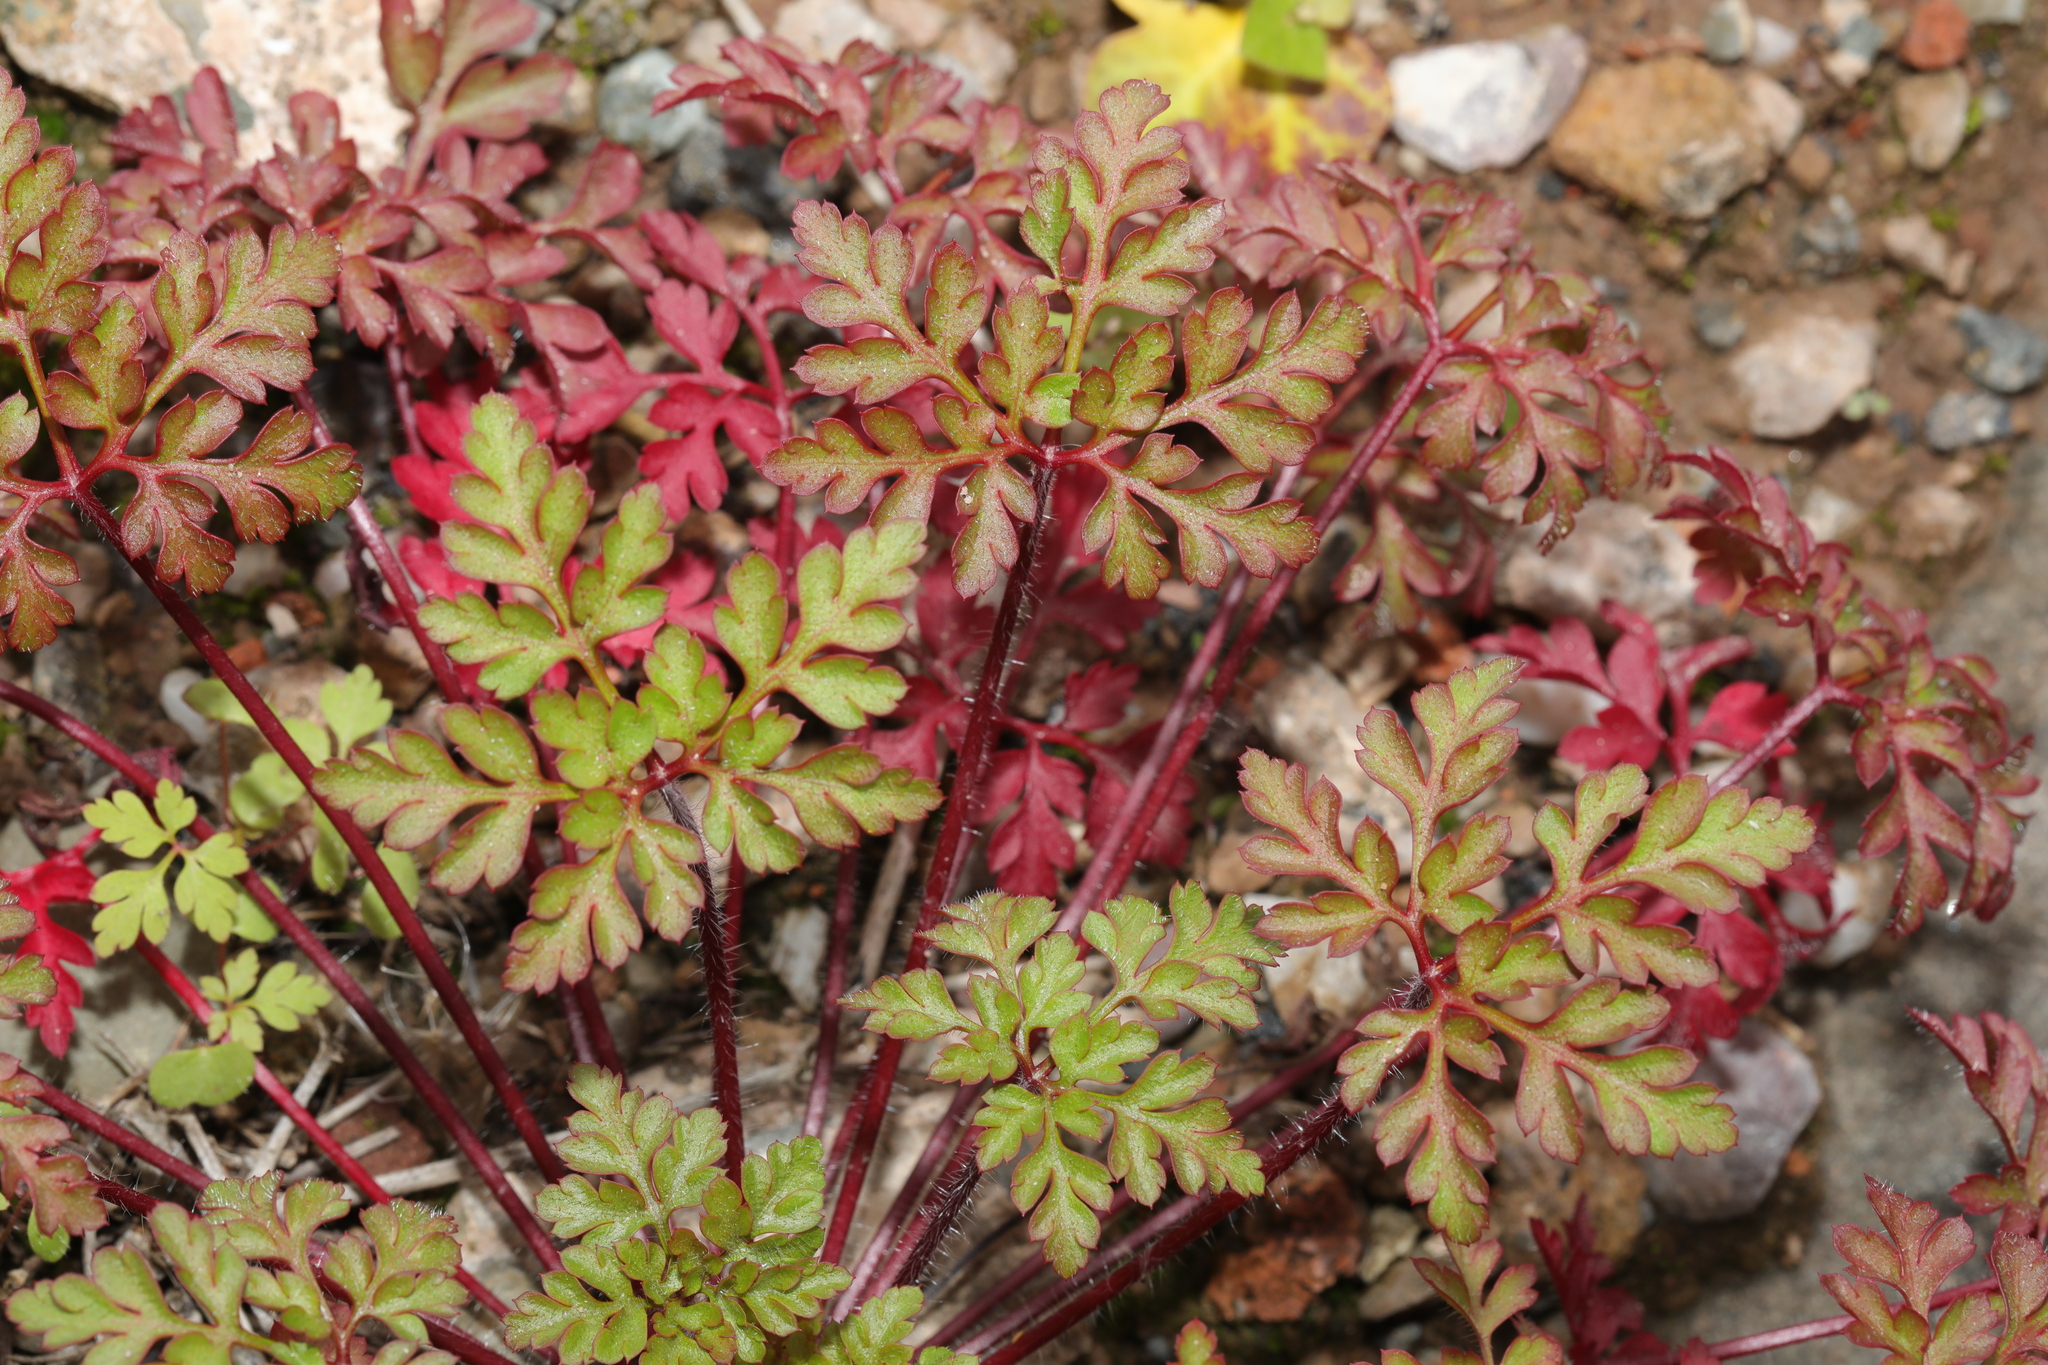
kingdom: Plantae
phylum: Tracheophyta
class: Magnoliopsida
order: Geraniales
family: Geraniaceae
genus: Geranium
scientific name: Geranium robertianum
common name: Herb-robert
